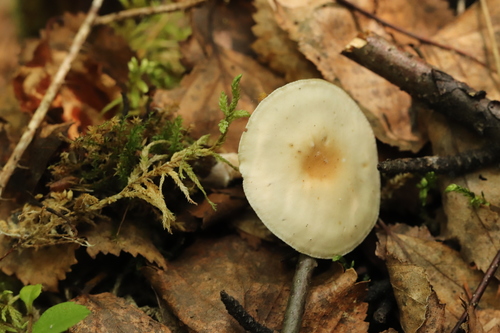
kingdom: Fungi
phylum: Basidiomycota
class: Agaricomycetes
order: Agaricales
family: Tricholomataceae
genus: Clitocybe
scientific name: Clitocybe
